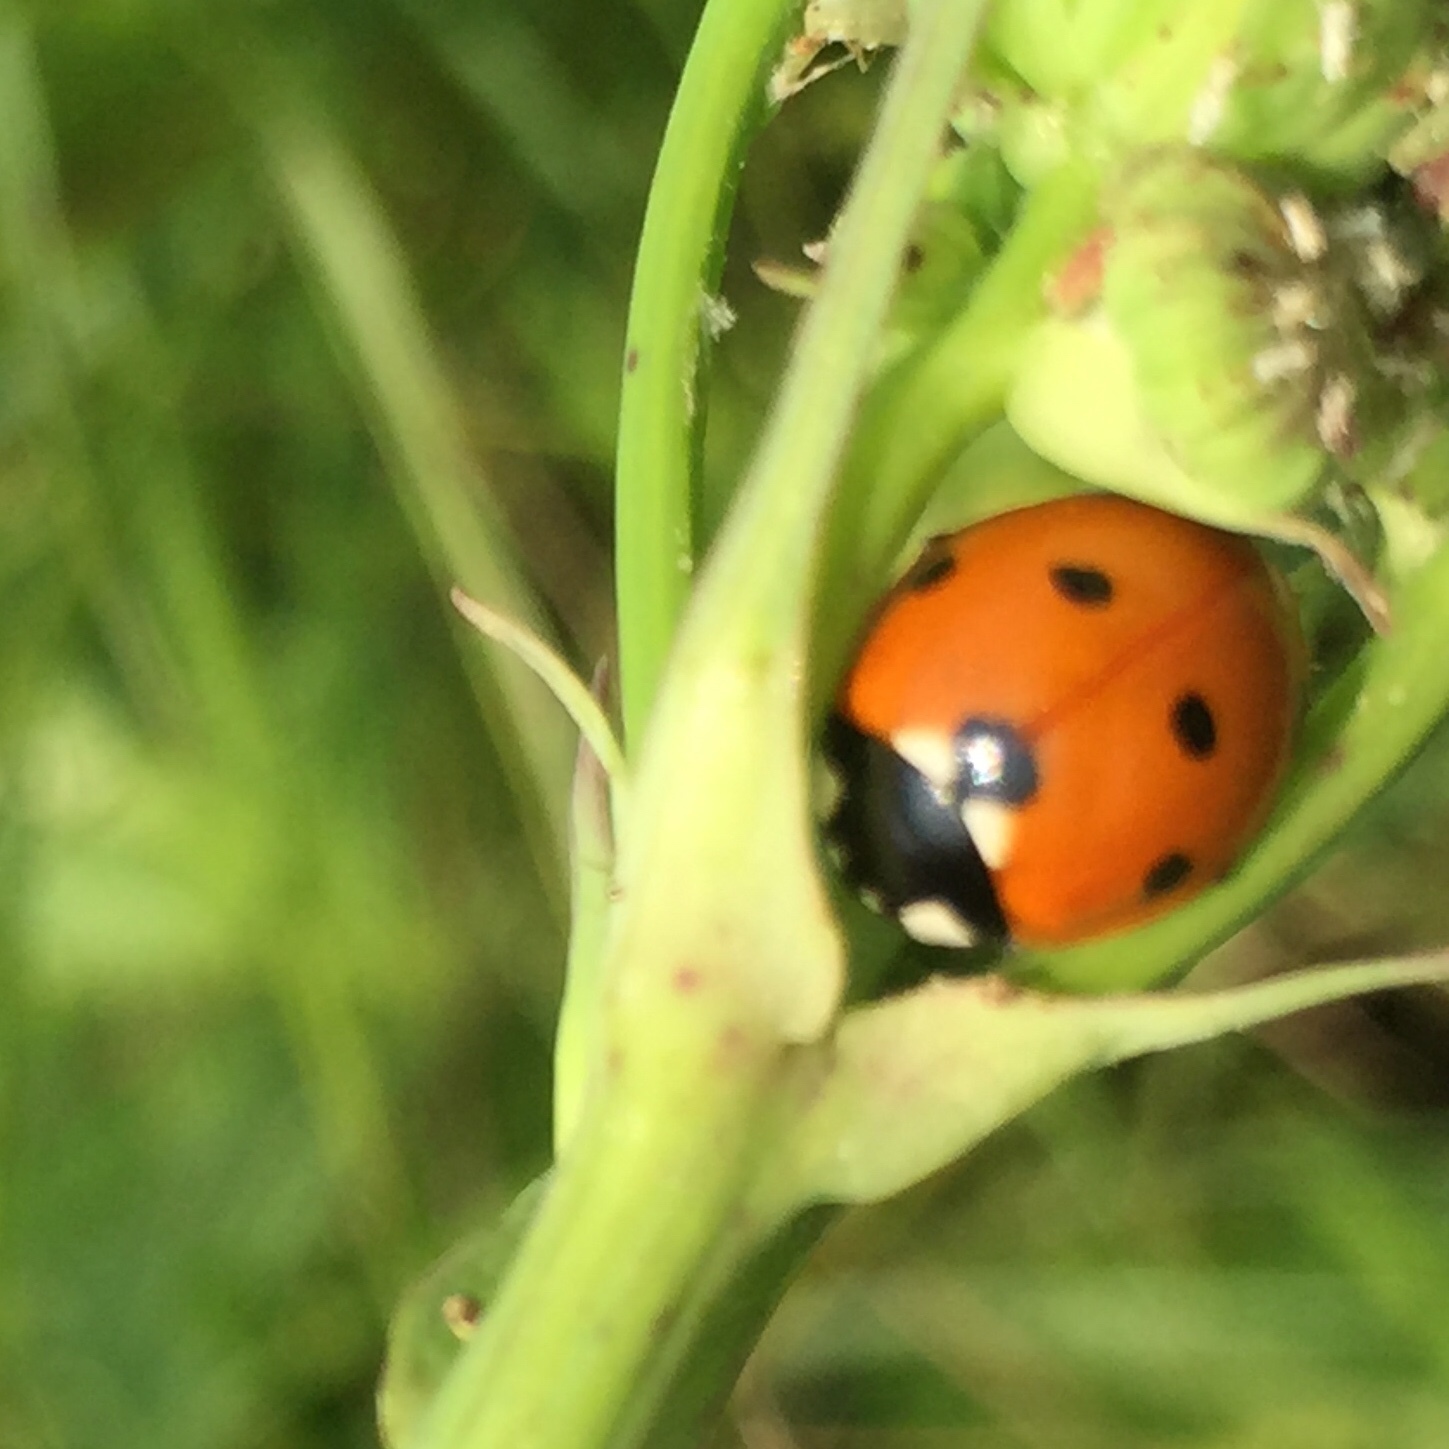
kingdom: Animalia
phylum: Arthropoda
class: Insecta
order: Coleoptera
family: Coccinellidae
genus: Coccinella
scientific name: Coccinella septempunctata
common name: Sevenspotted lady beetle
